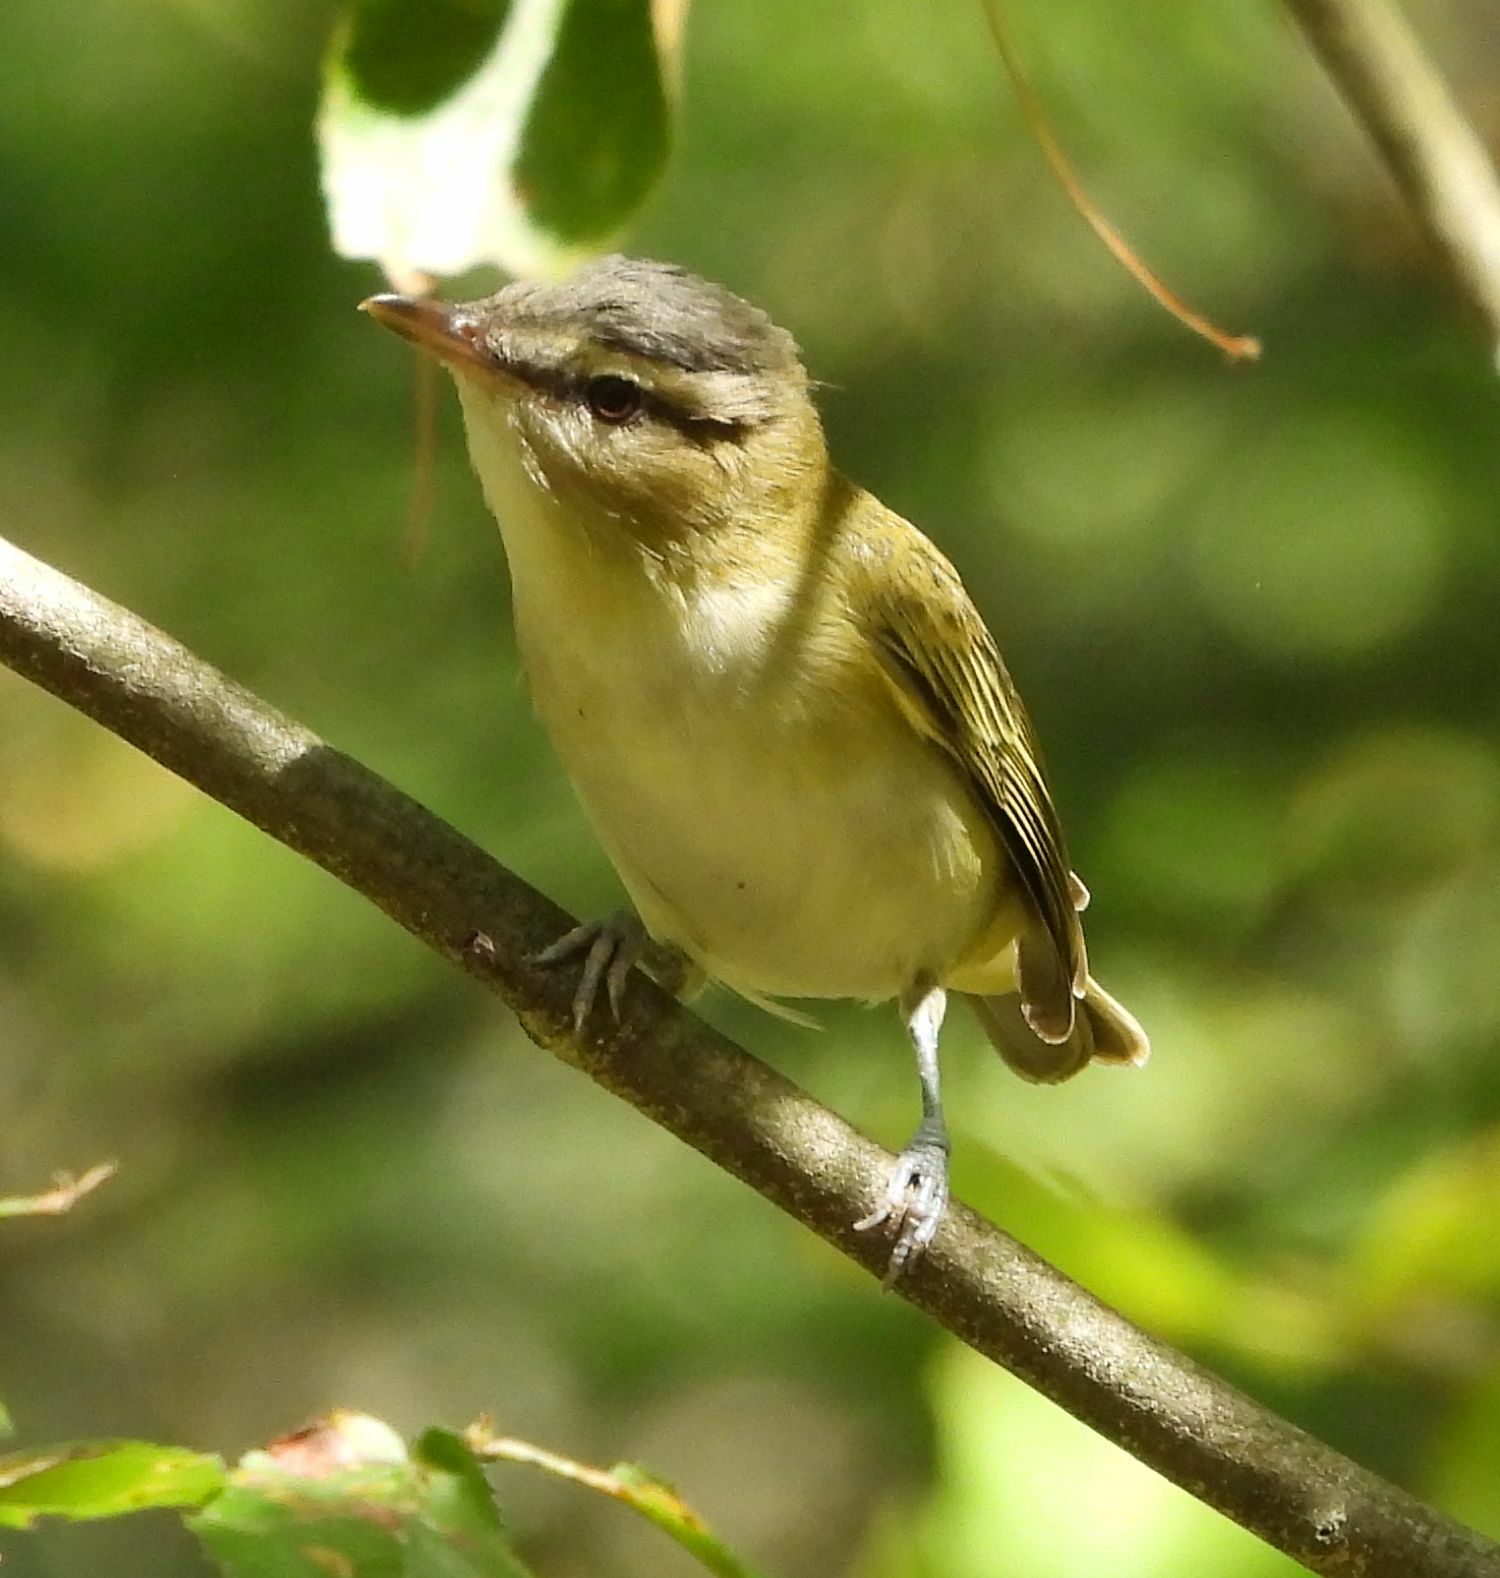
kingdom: Animalia
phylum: Chordata
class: Aves
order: Passeriformes
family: Vireonidae
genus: Vireo
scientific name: Vireo olivaceus
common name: Red-eyed vireo
